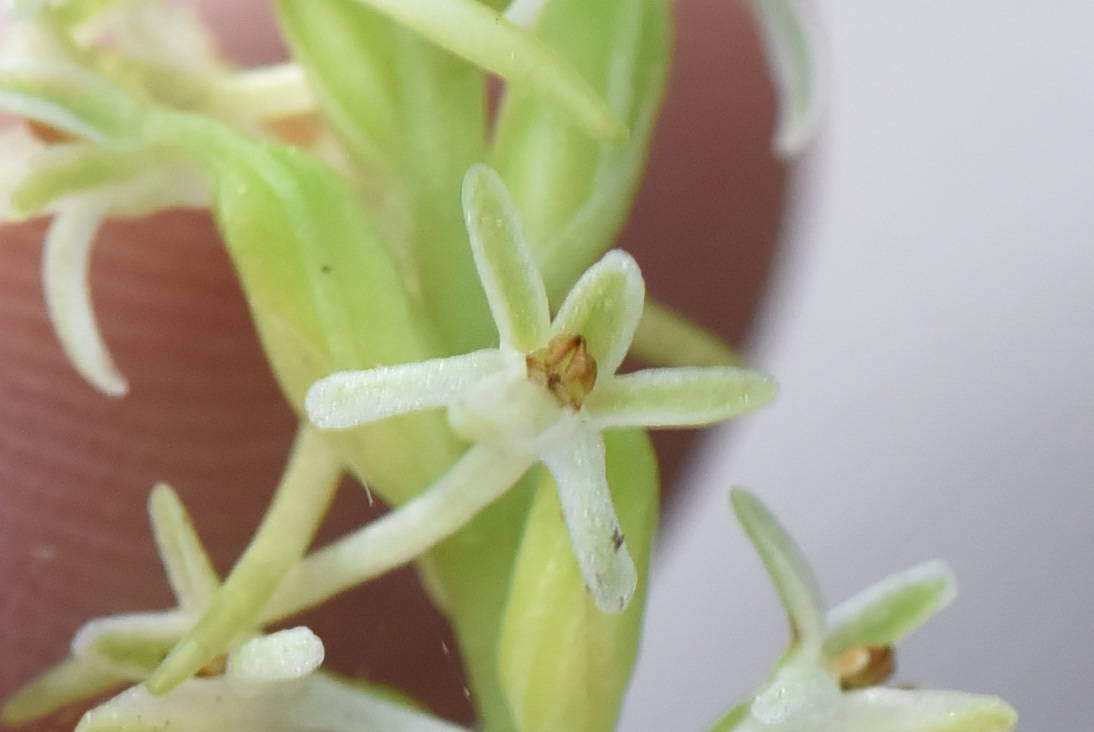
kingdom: Plantae
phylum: Tracheophyta
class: Liliopsida
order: Asparagales
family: Orchidaceae
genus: Platanthera
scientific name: Platanthera transversa
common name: Royal rein orchid
